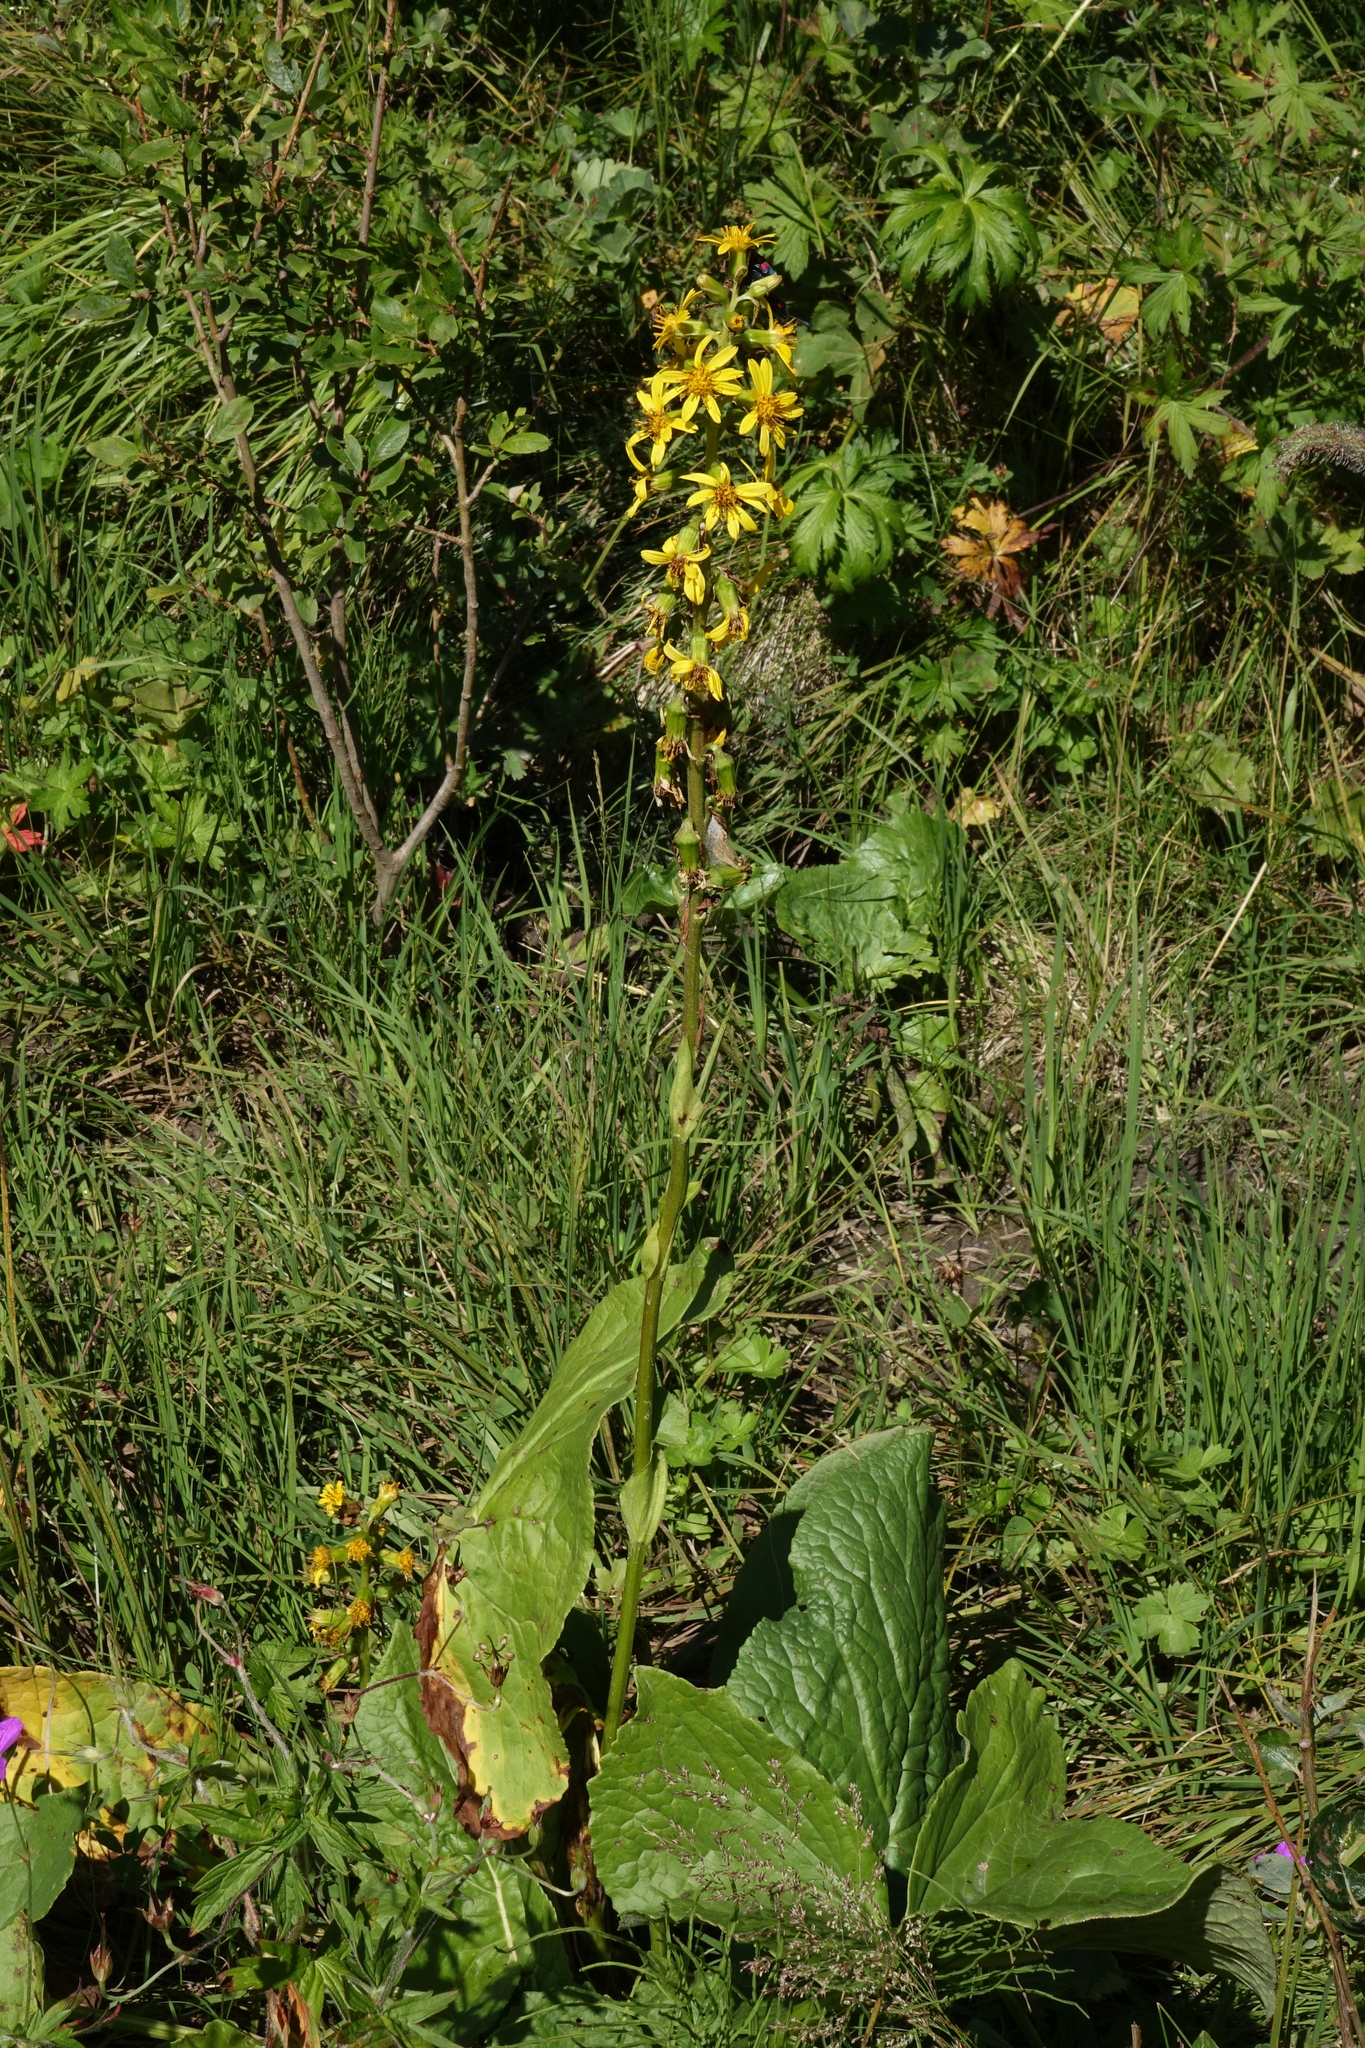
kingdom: Plantae
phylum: Tracheophyta
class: Magnoliopsida
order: Asterales
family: Asteraceae
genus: Ligularia
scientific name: Ligularia subsagittata
